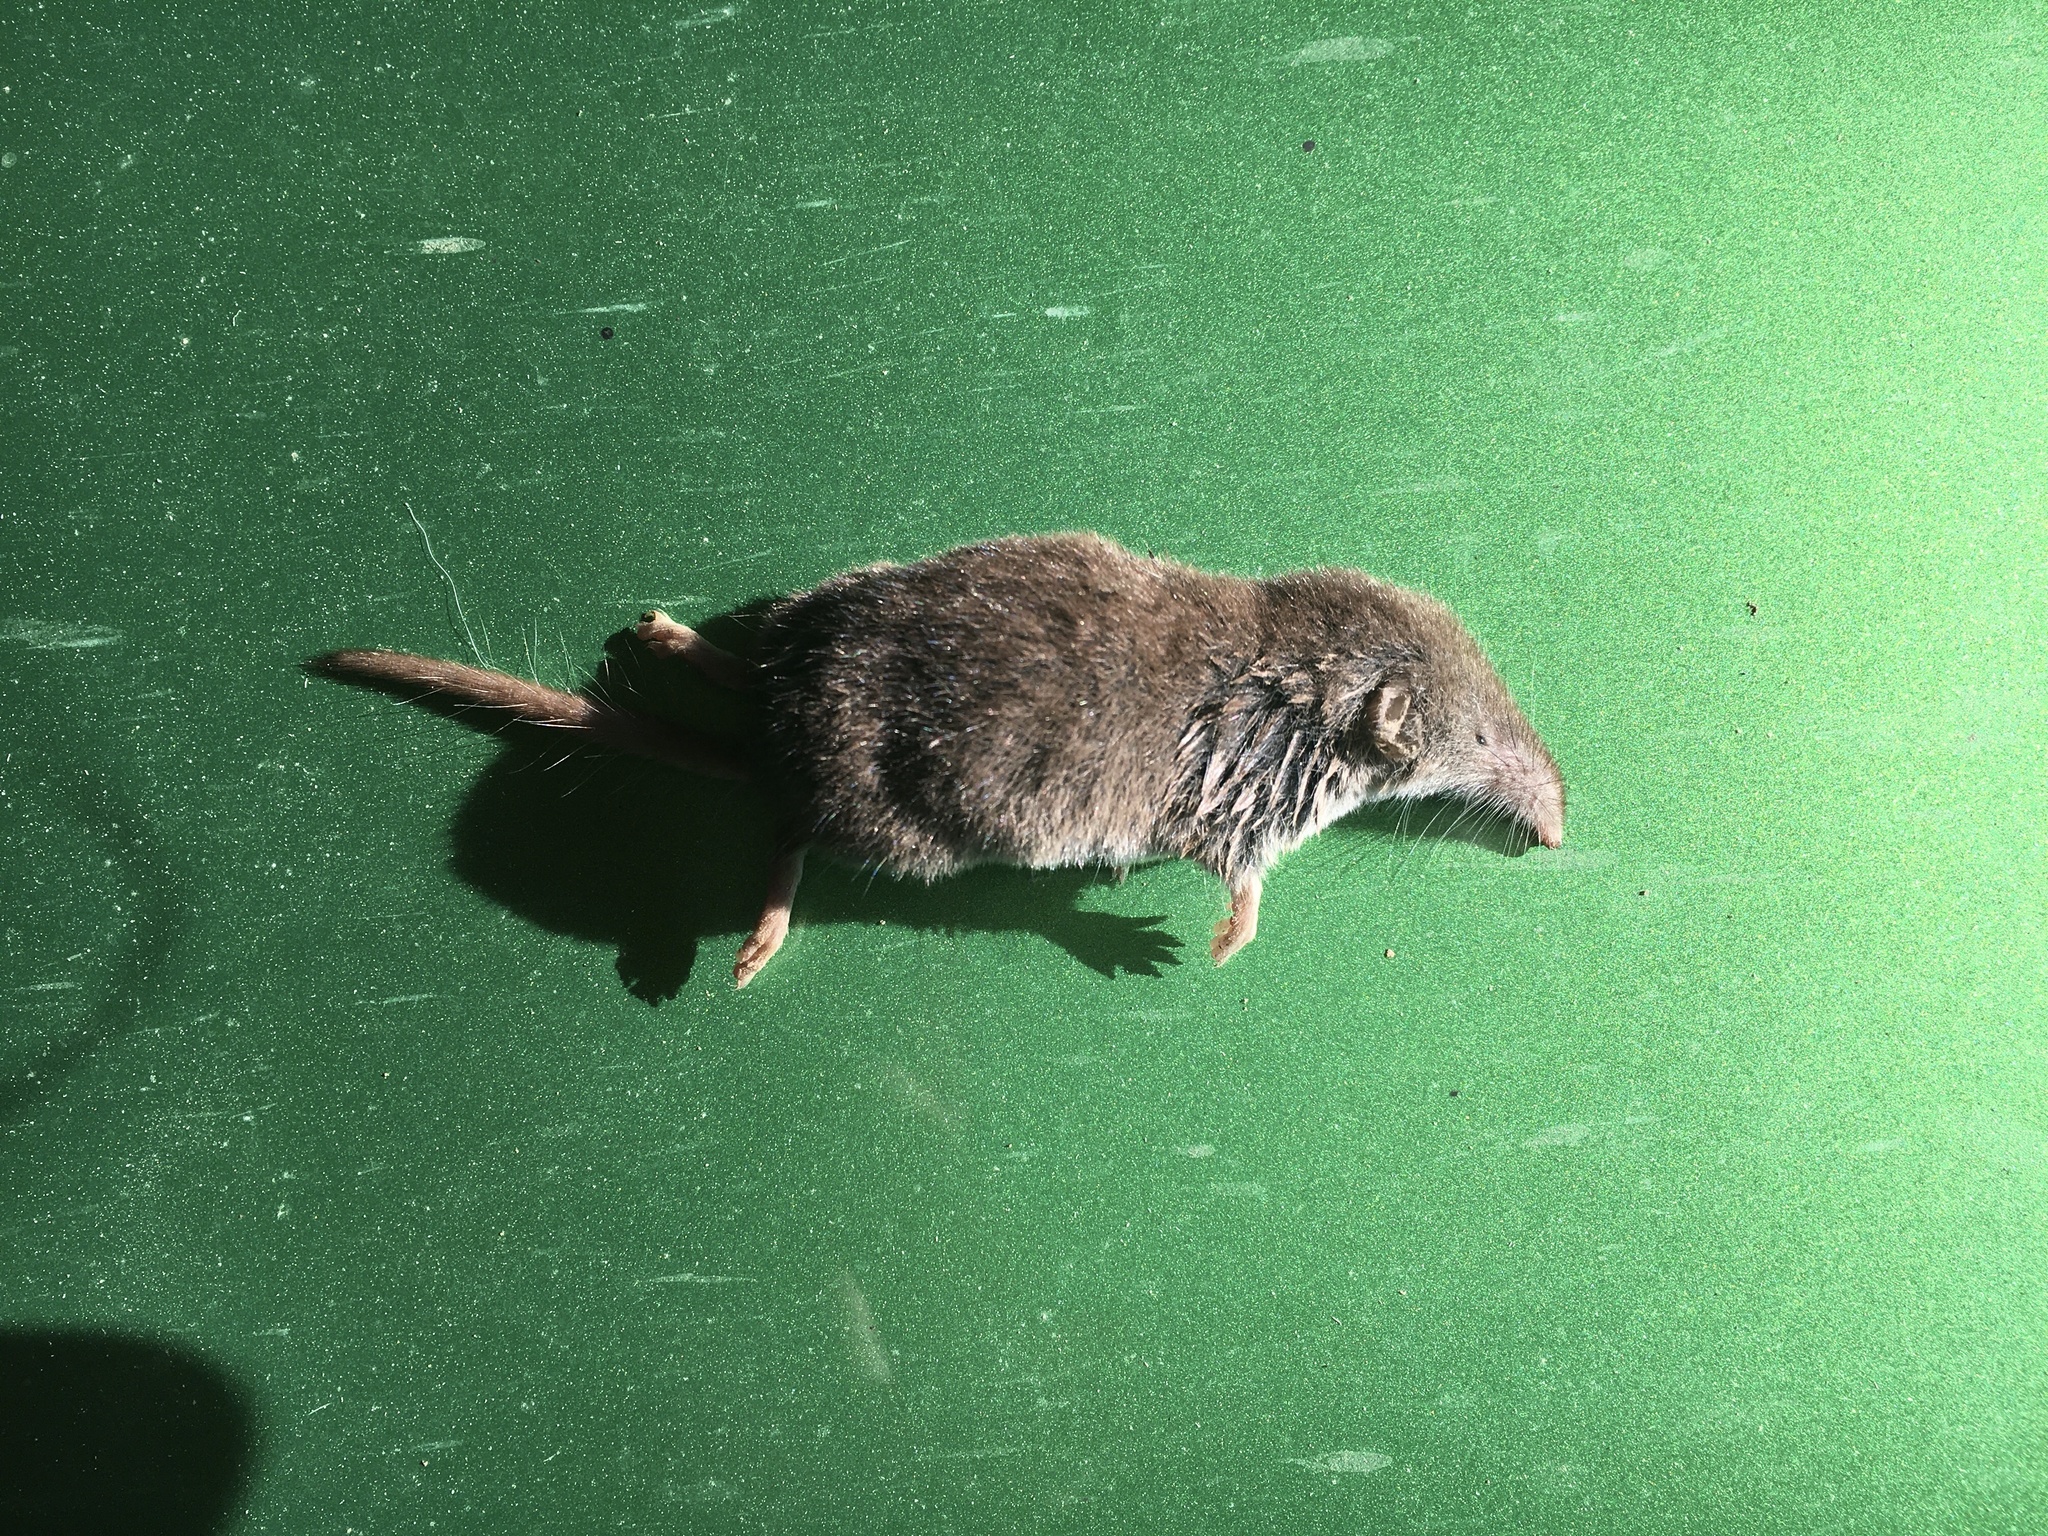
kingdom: Animalia
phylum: Chordata
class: Mammalia
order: Soricomorpha
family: Soricidae
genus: Crocidura
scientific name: Crocidura suaveolens
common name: Lesser white-toothed shrew
